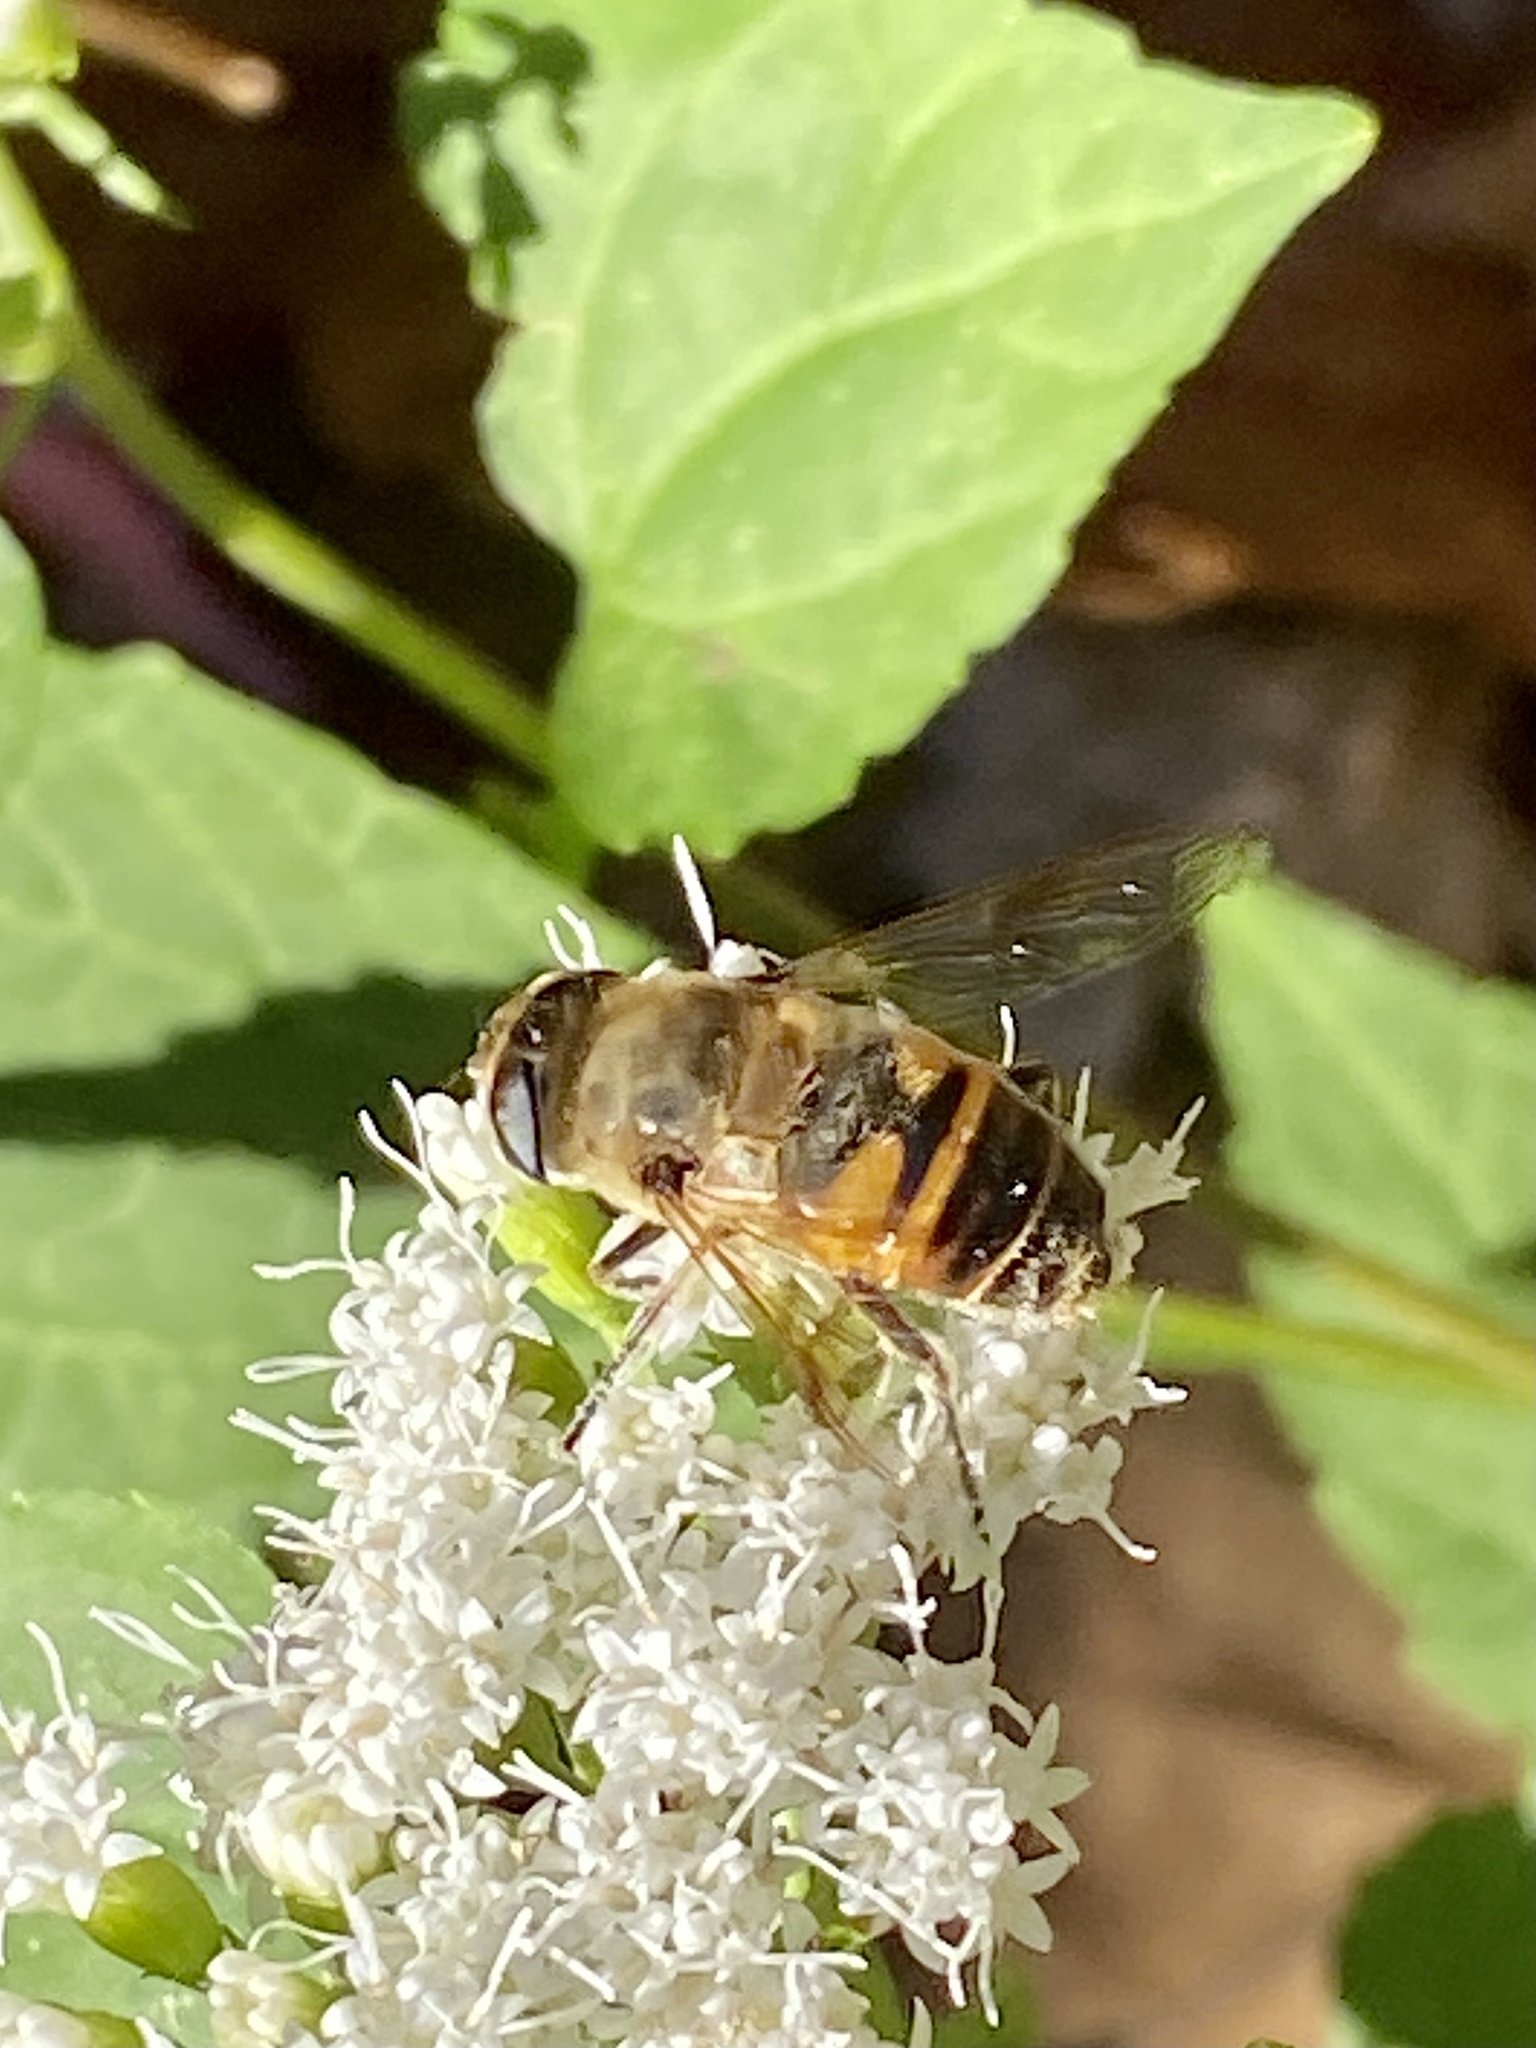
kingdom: Animalia
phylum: Arthropoda
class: Insecta
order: Diptera
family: Syrphidae
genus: Eristalis
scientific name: Eristalis tenax
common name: Drone fly
